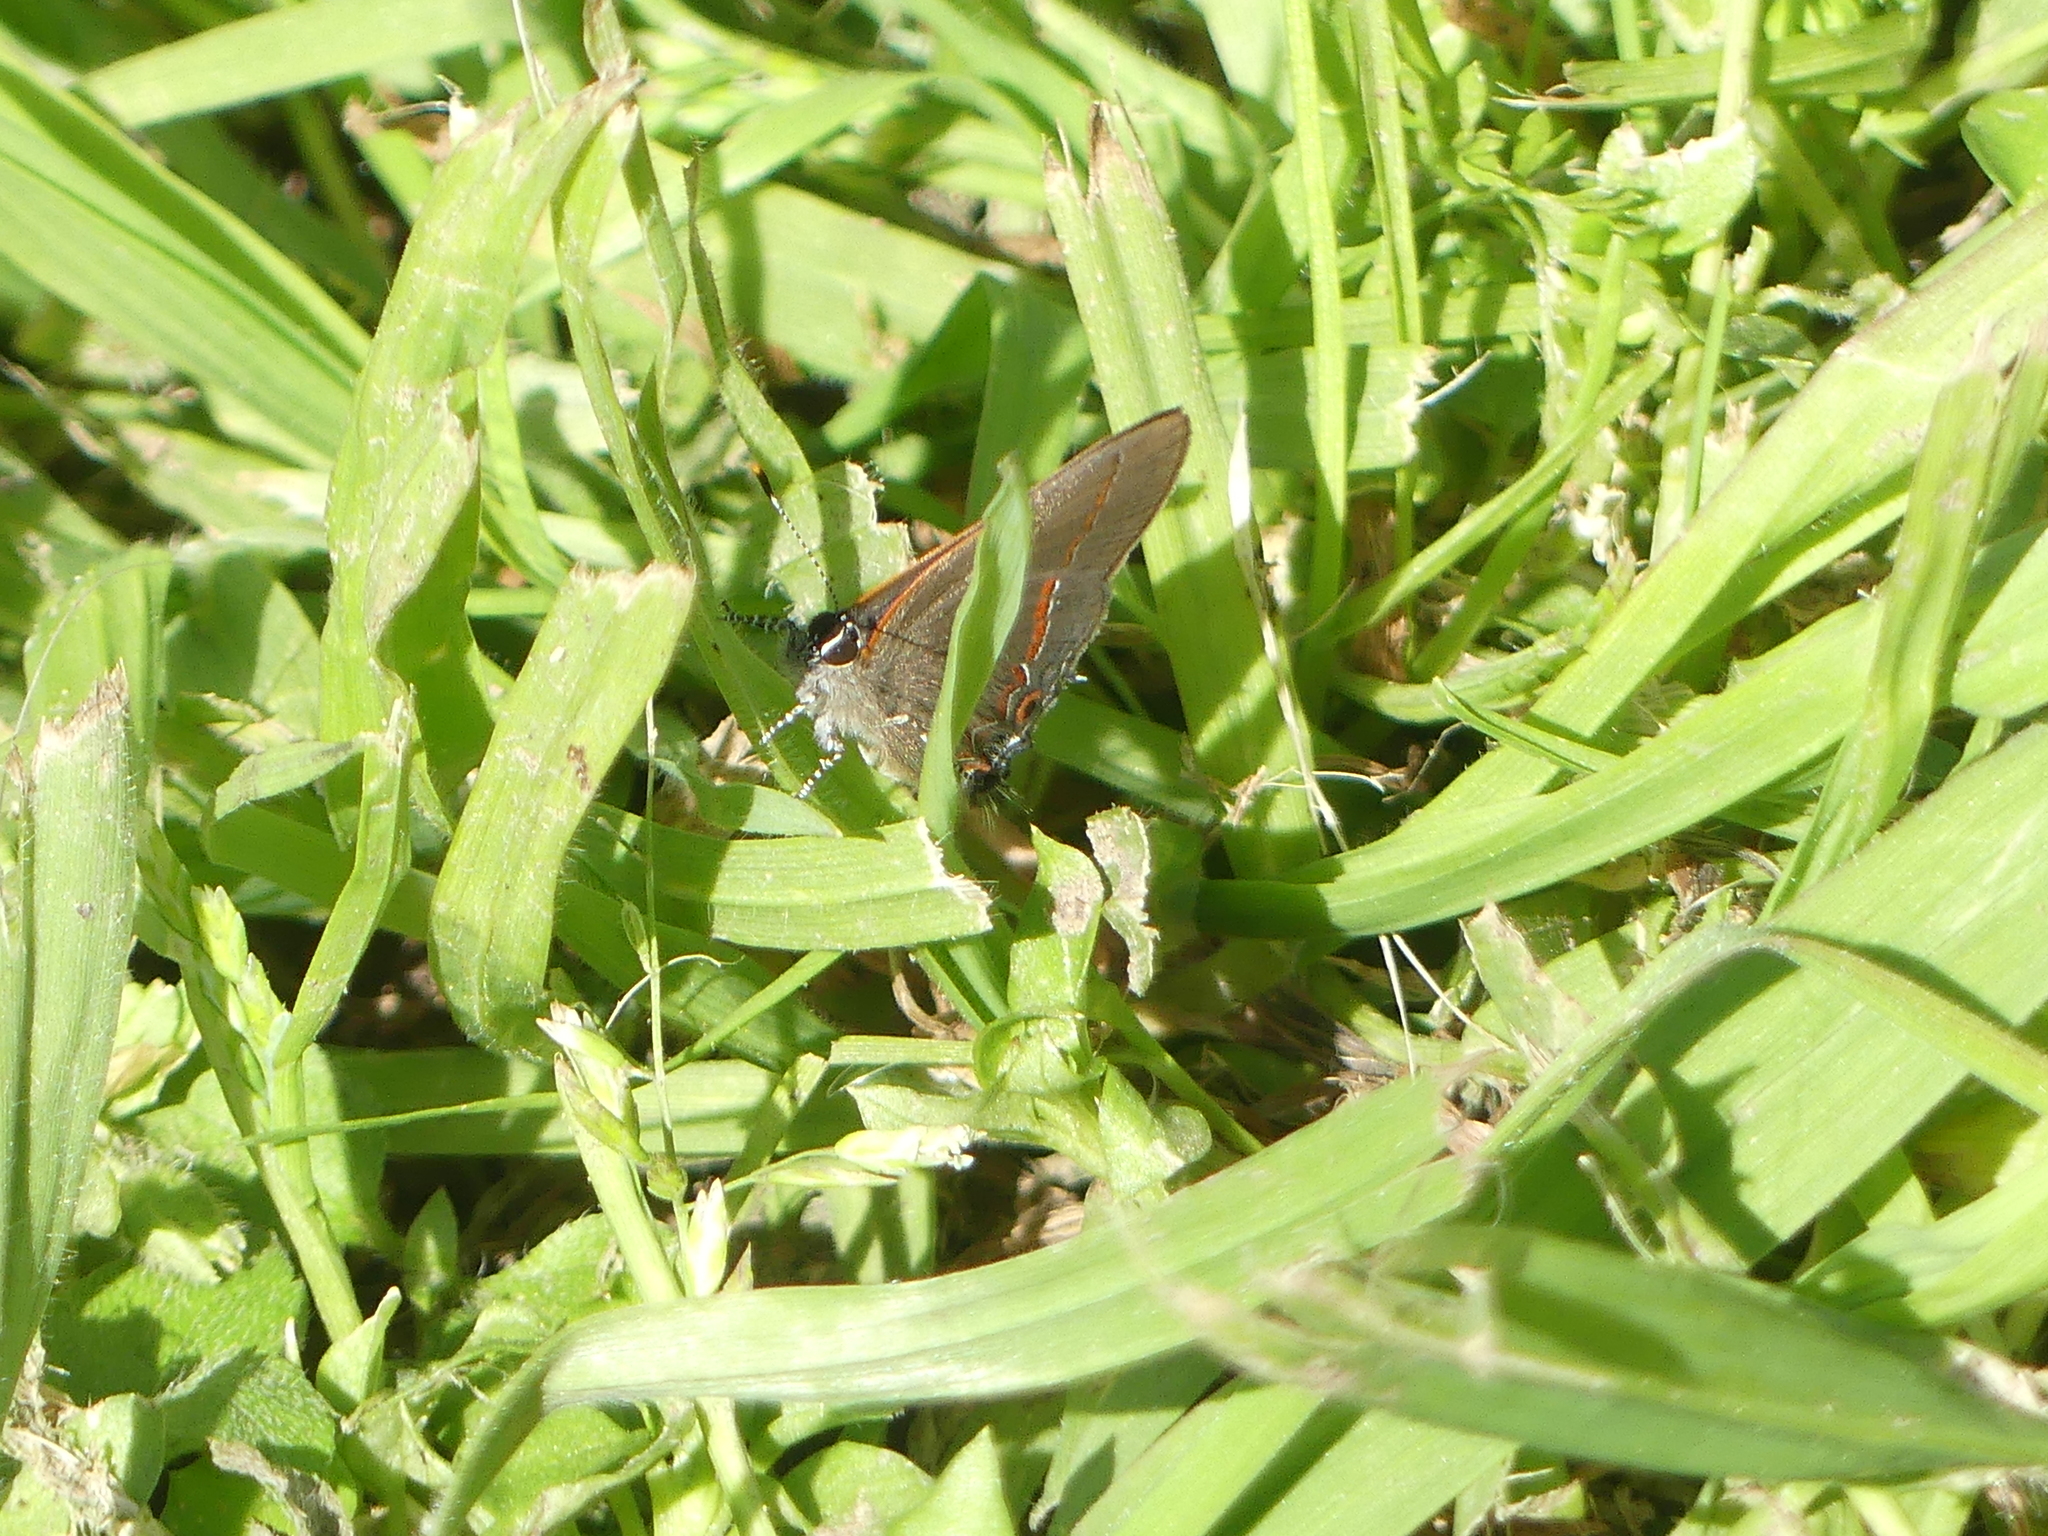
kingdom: Animalia
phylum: Arthropoda
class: Insecta
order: Lepidoptera
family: Lycaenidae
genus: Calycopis
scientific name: Calycopis isobeon
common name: Dusky-blue groundstreak
